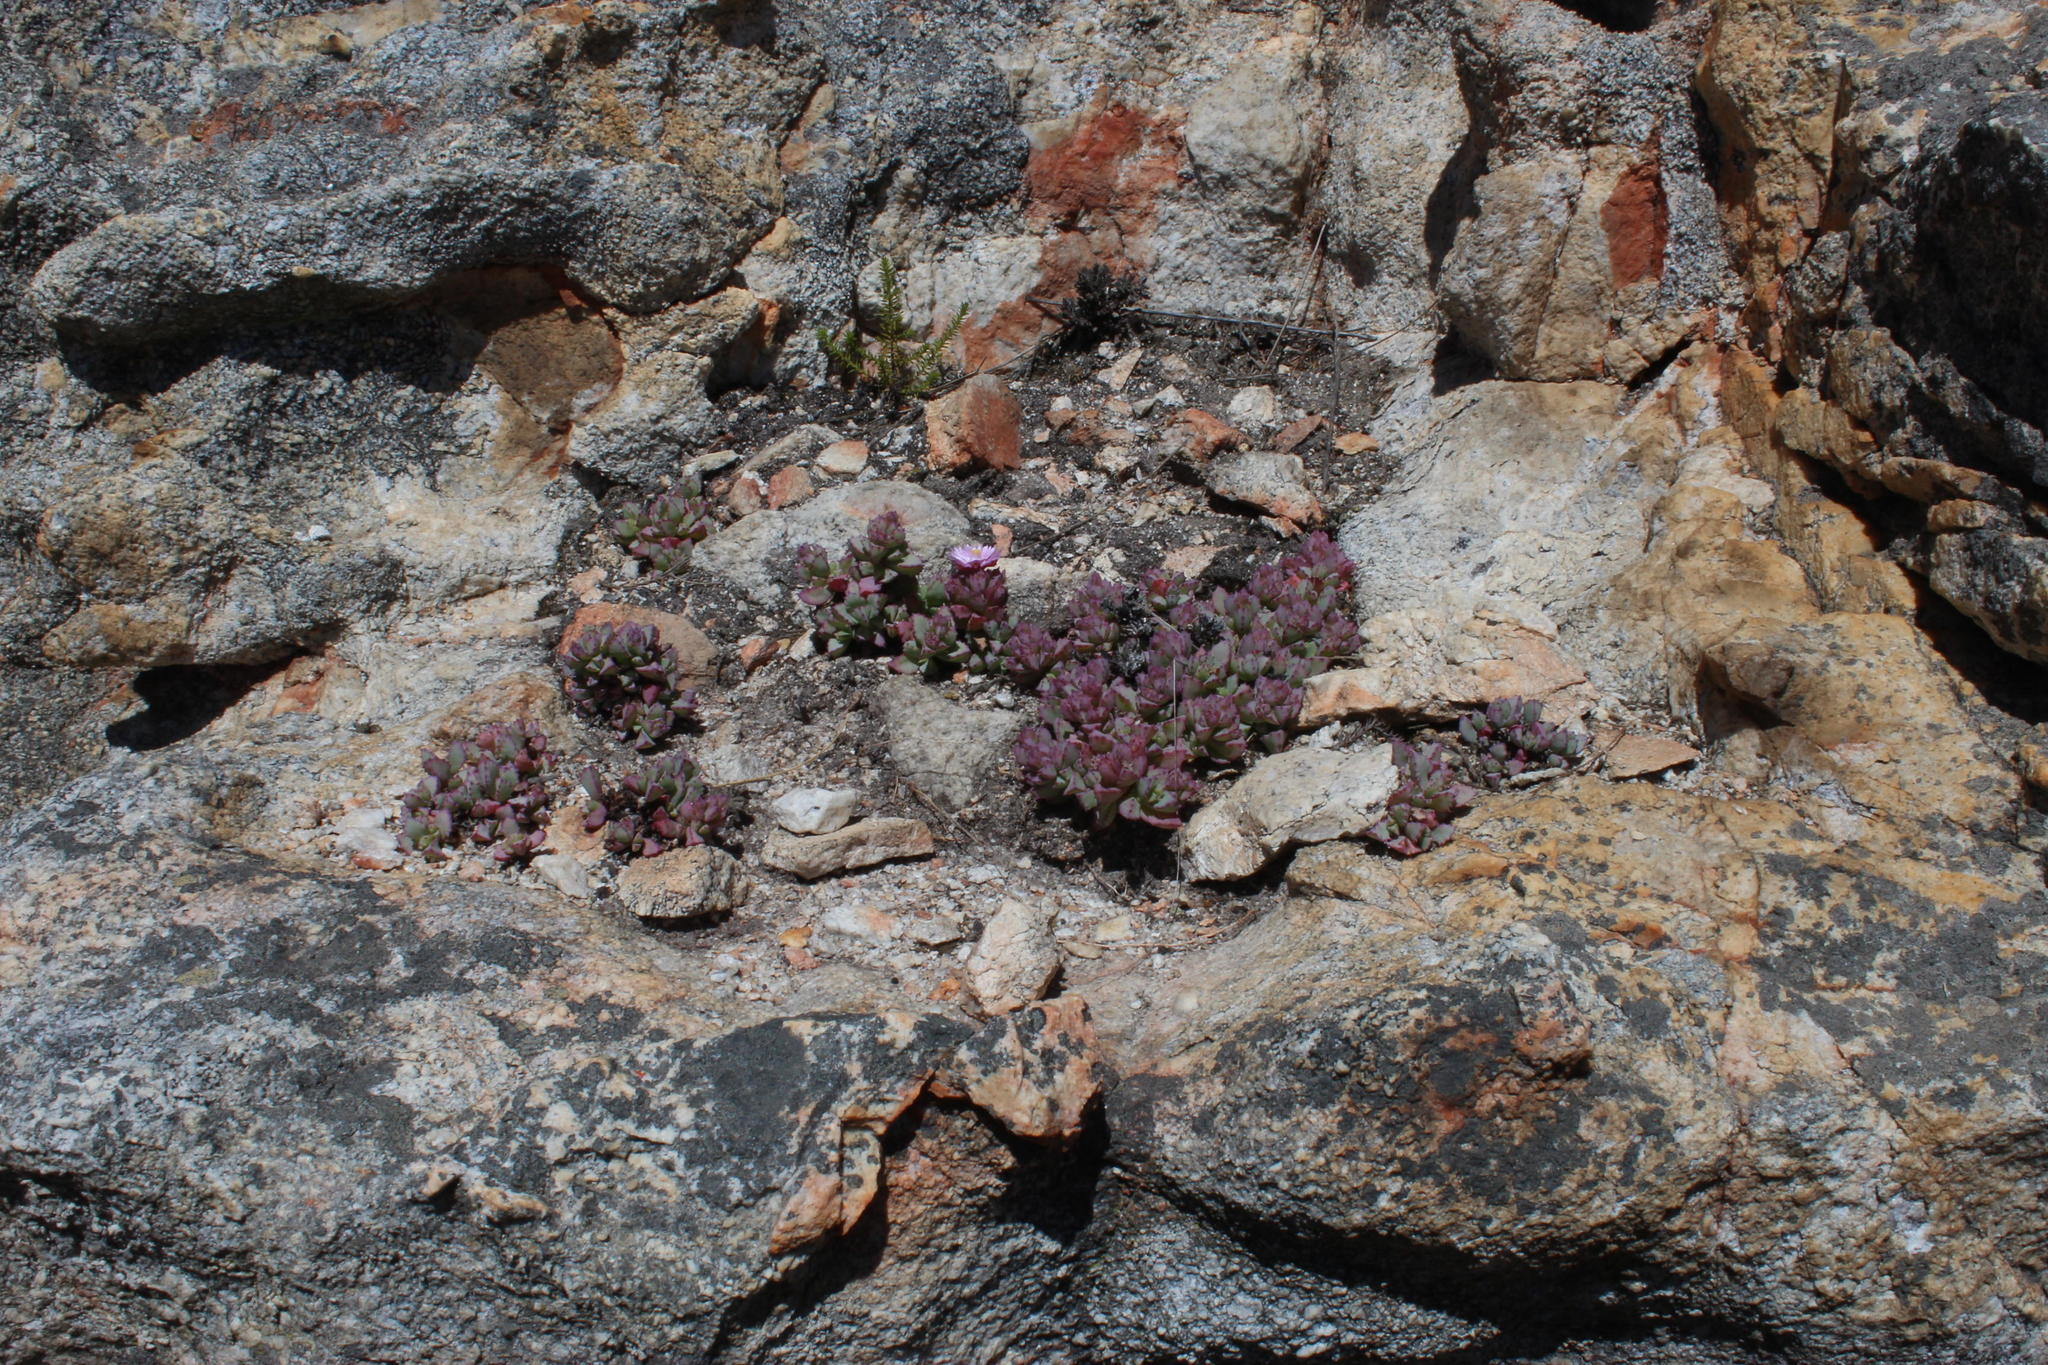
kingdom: Plantae
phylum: Tracheophyta
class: Magnoliopsida
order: Caryophyllales
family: Aizoaceae
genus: Oscularia
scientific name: Oscularia deltoides
